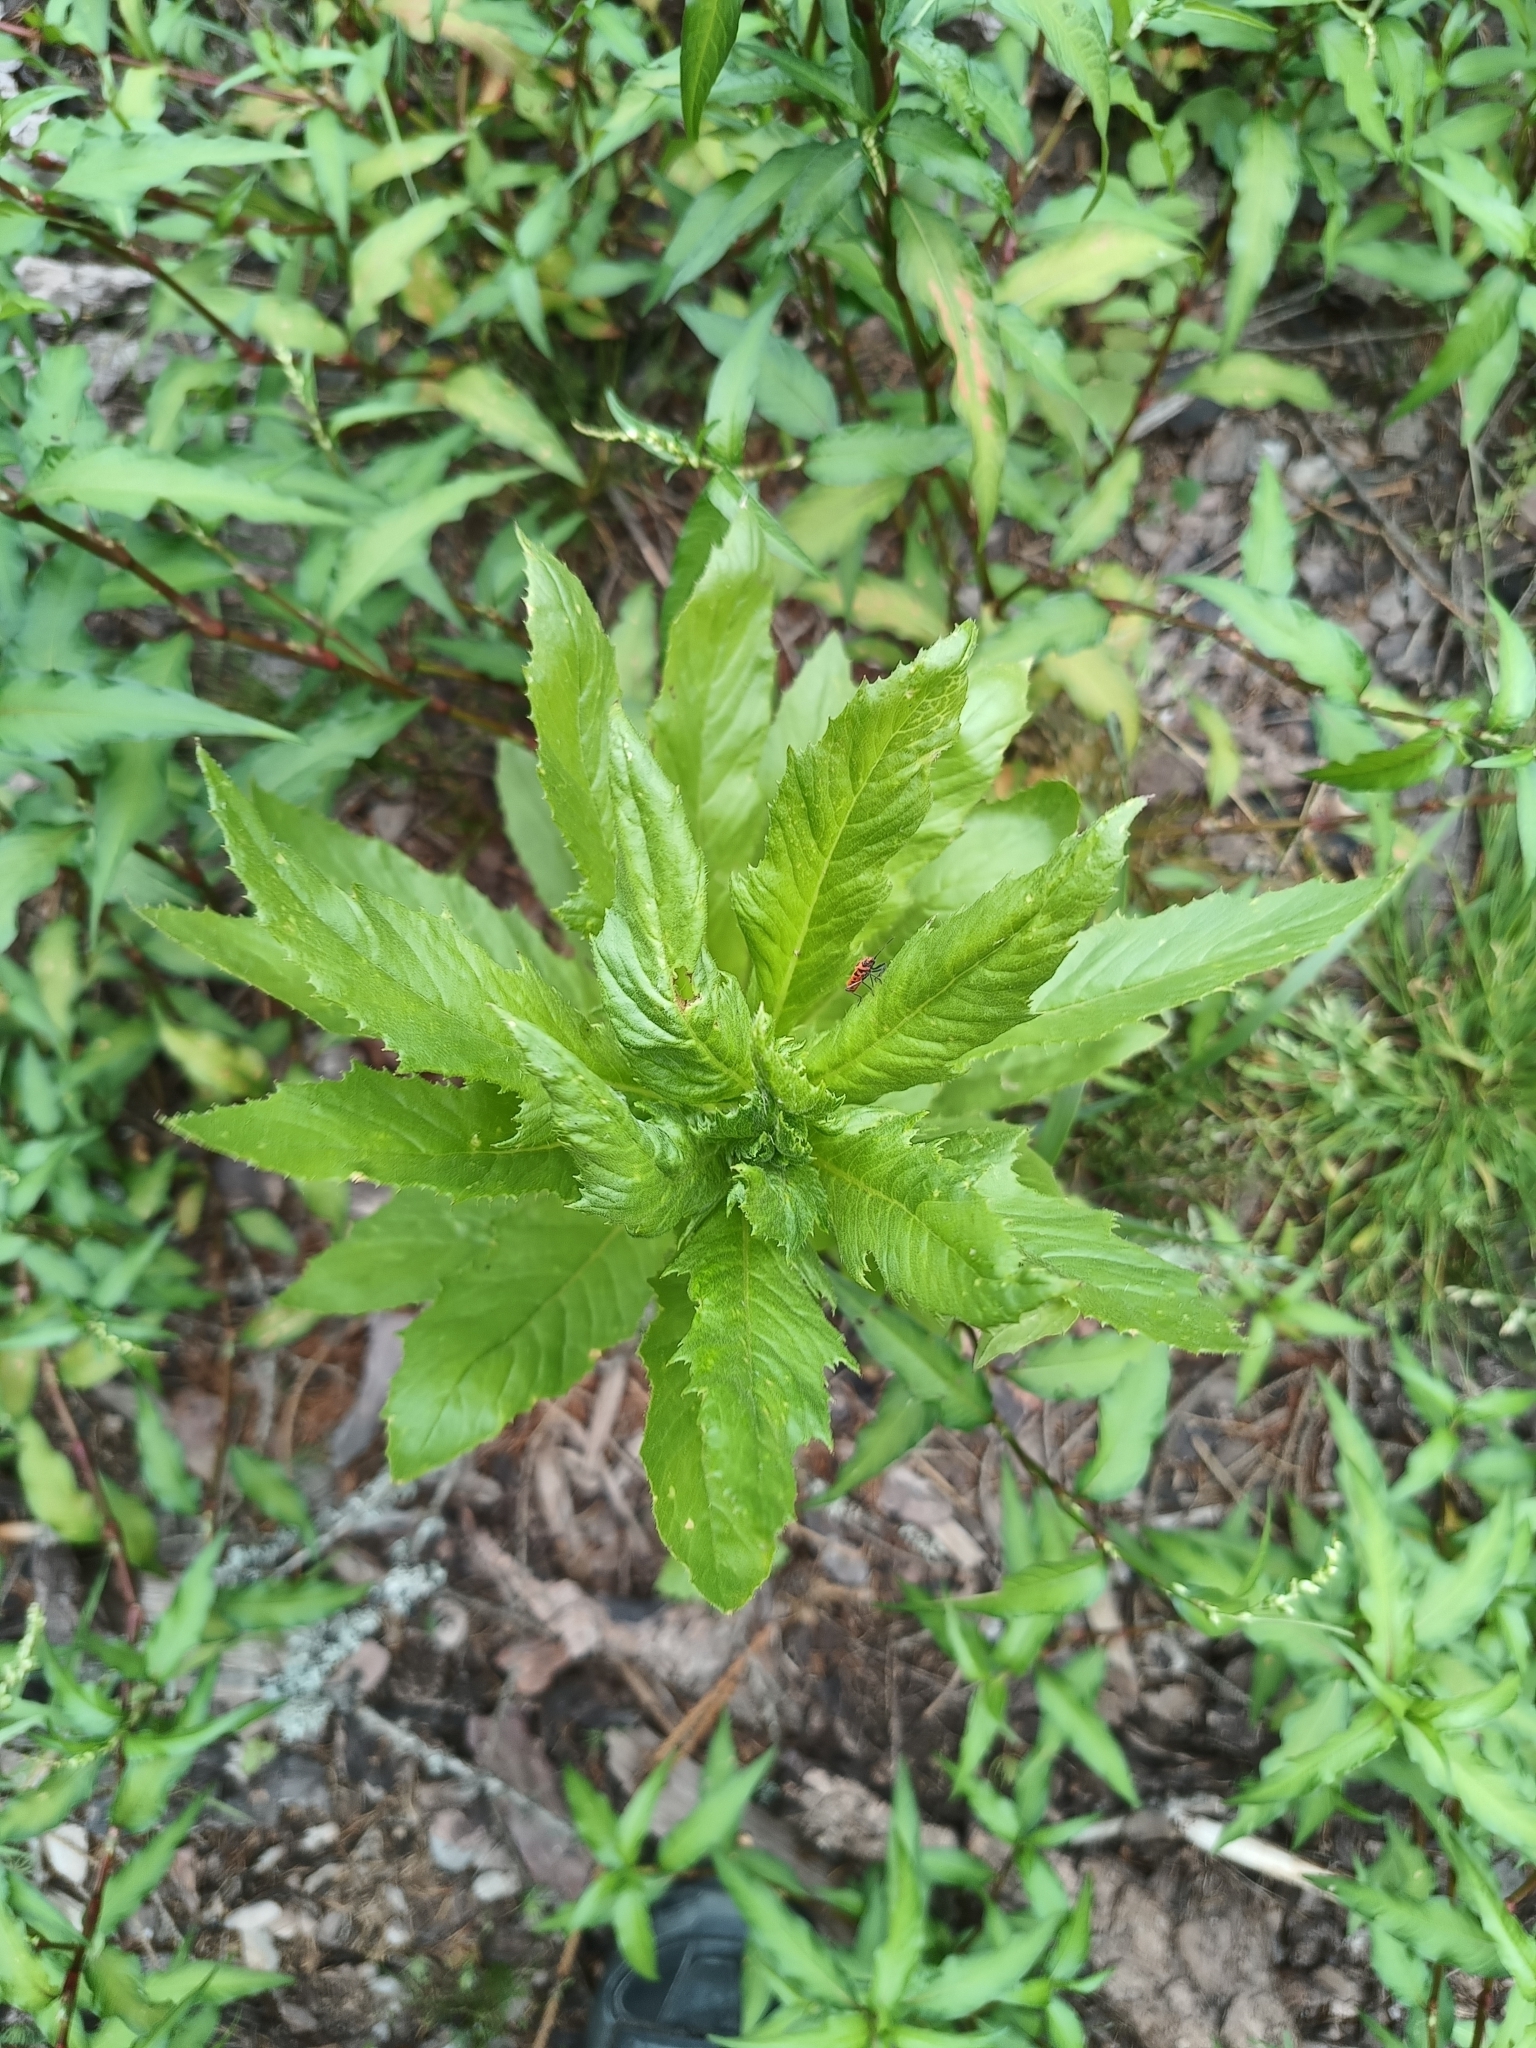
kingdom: Plantae
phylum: Tracheophyta
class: Magnoliopsida
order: Asterales
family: Asteraceae
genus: Erechtites
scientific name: Erechtites hieraciifolius
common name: American burnweed
